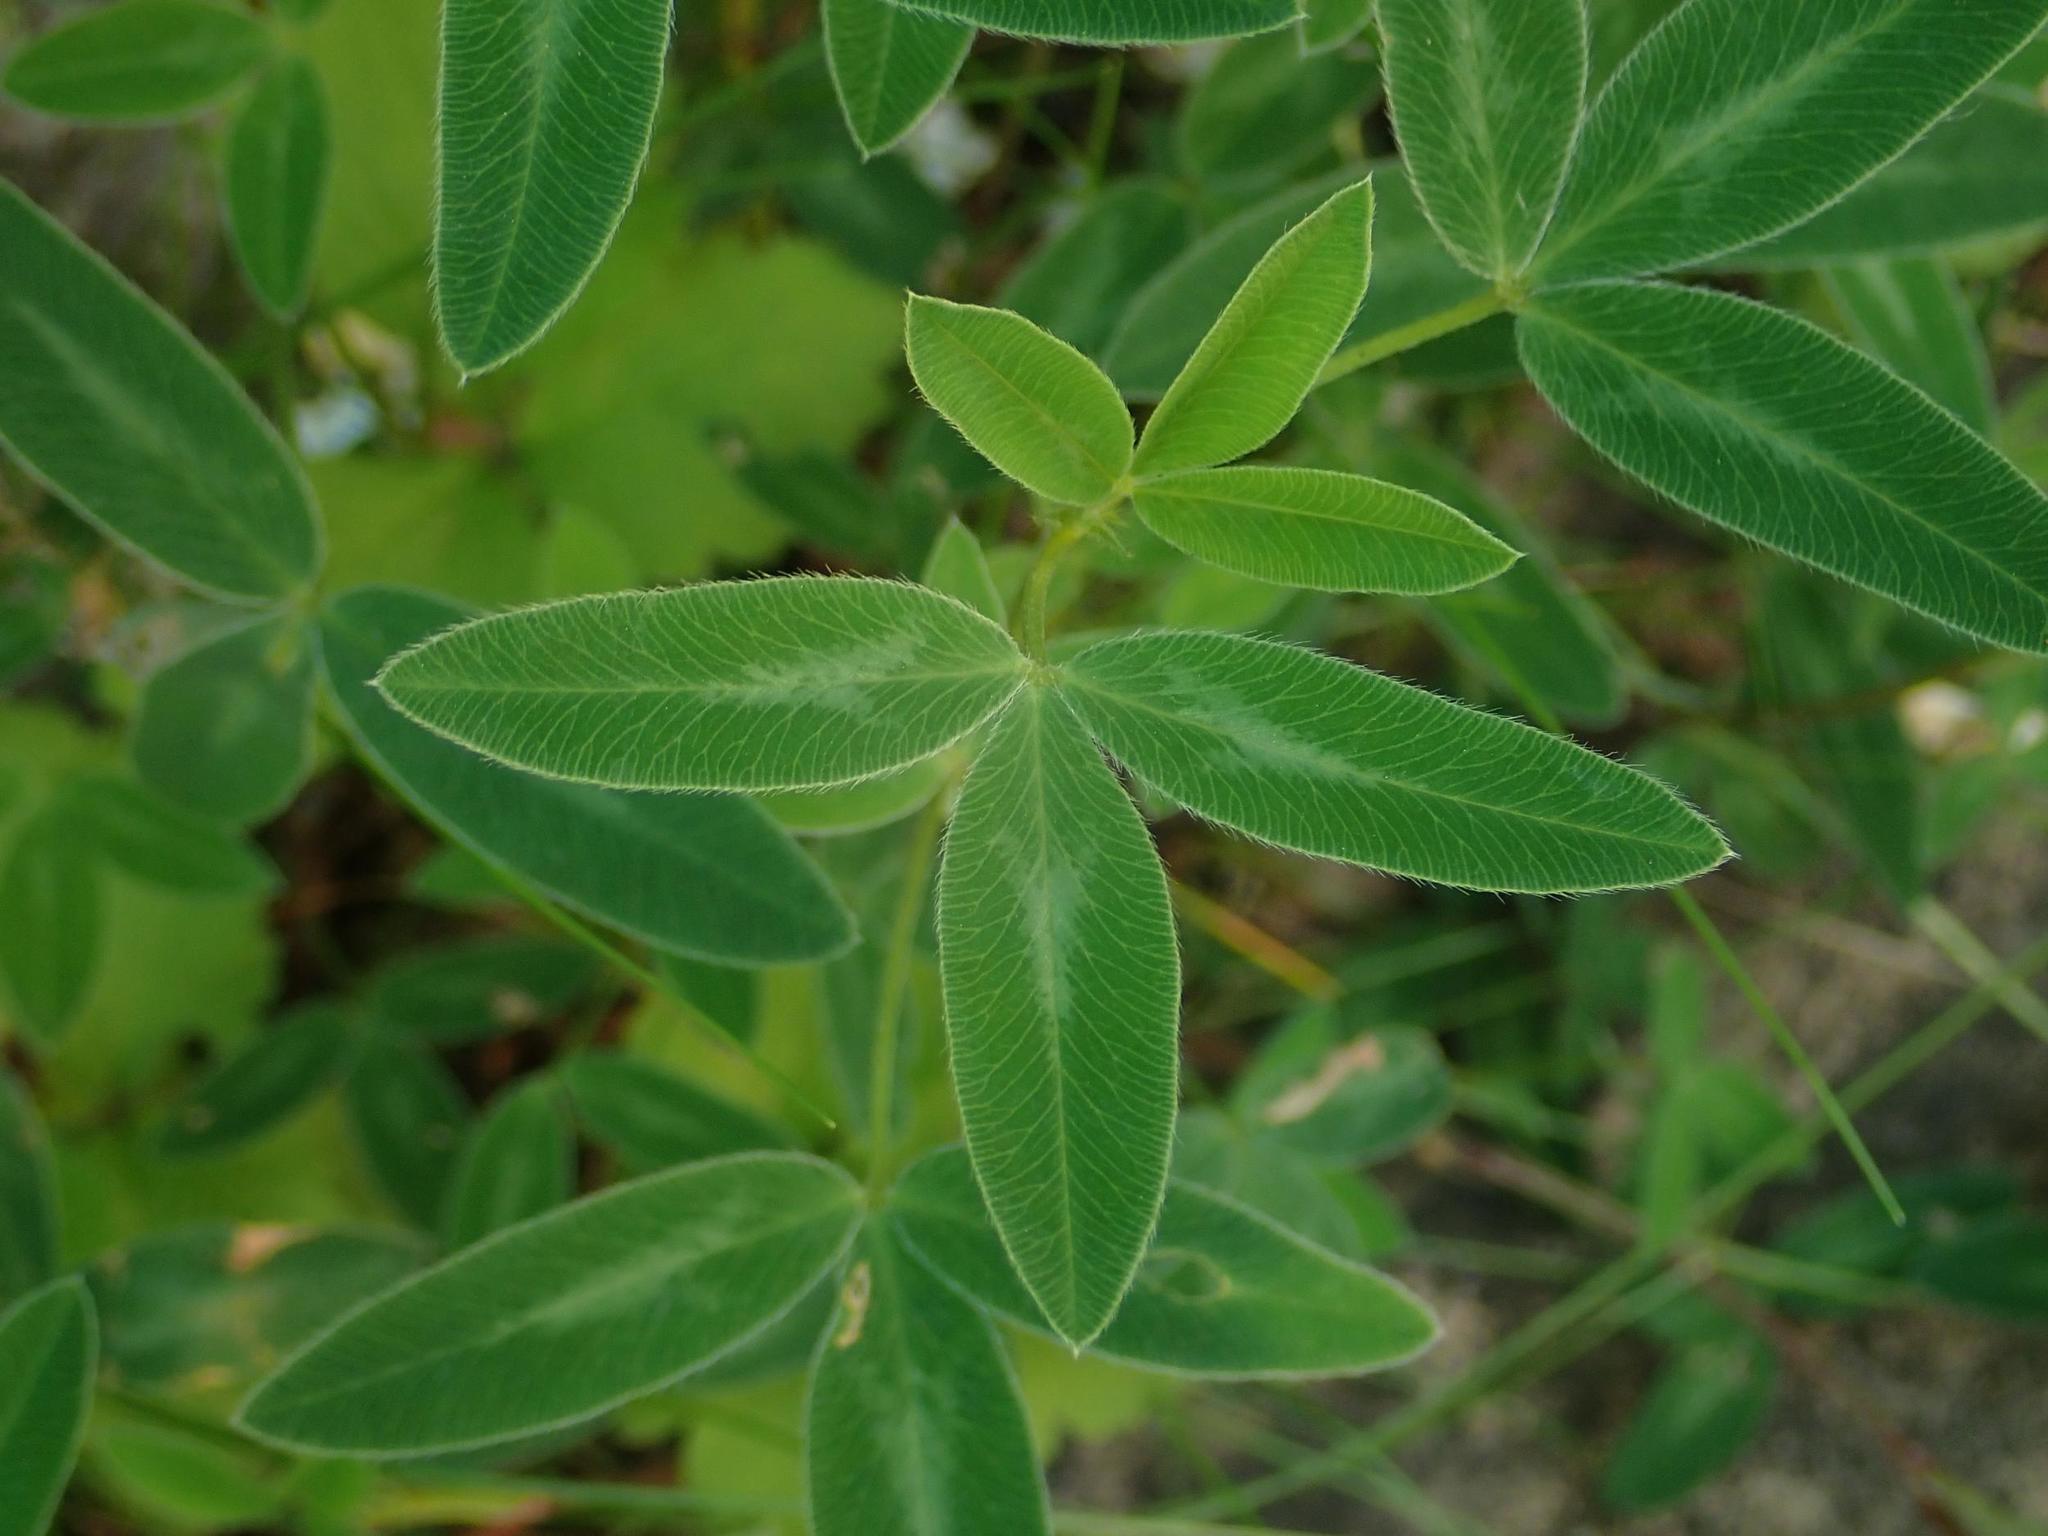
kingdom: Plantae
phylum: Tracheophyta
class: Magnoliopsida
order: Fabales
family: Fabaceae
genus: Trifolium
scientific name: Trifolium medium
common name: Zigzag clover
